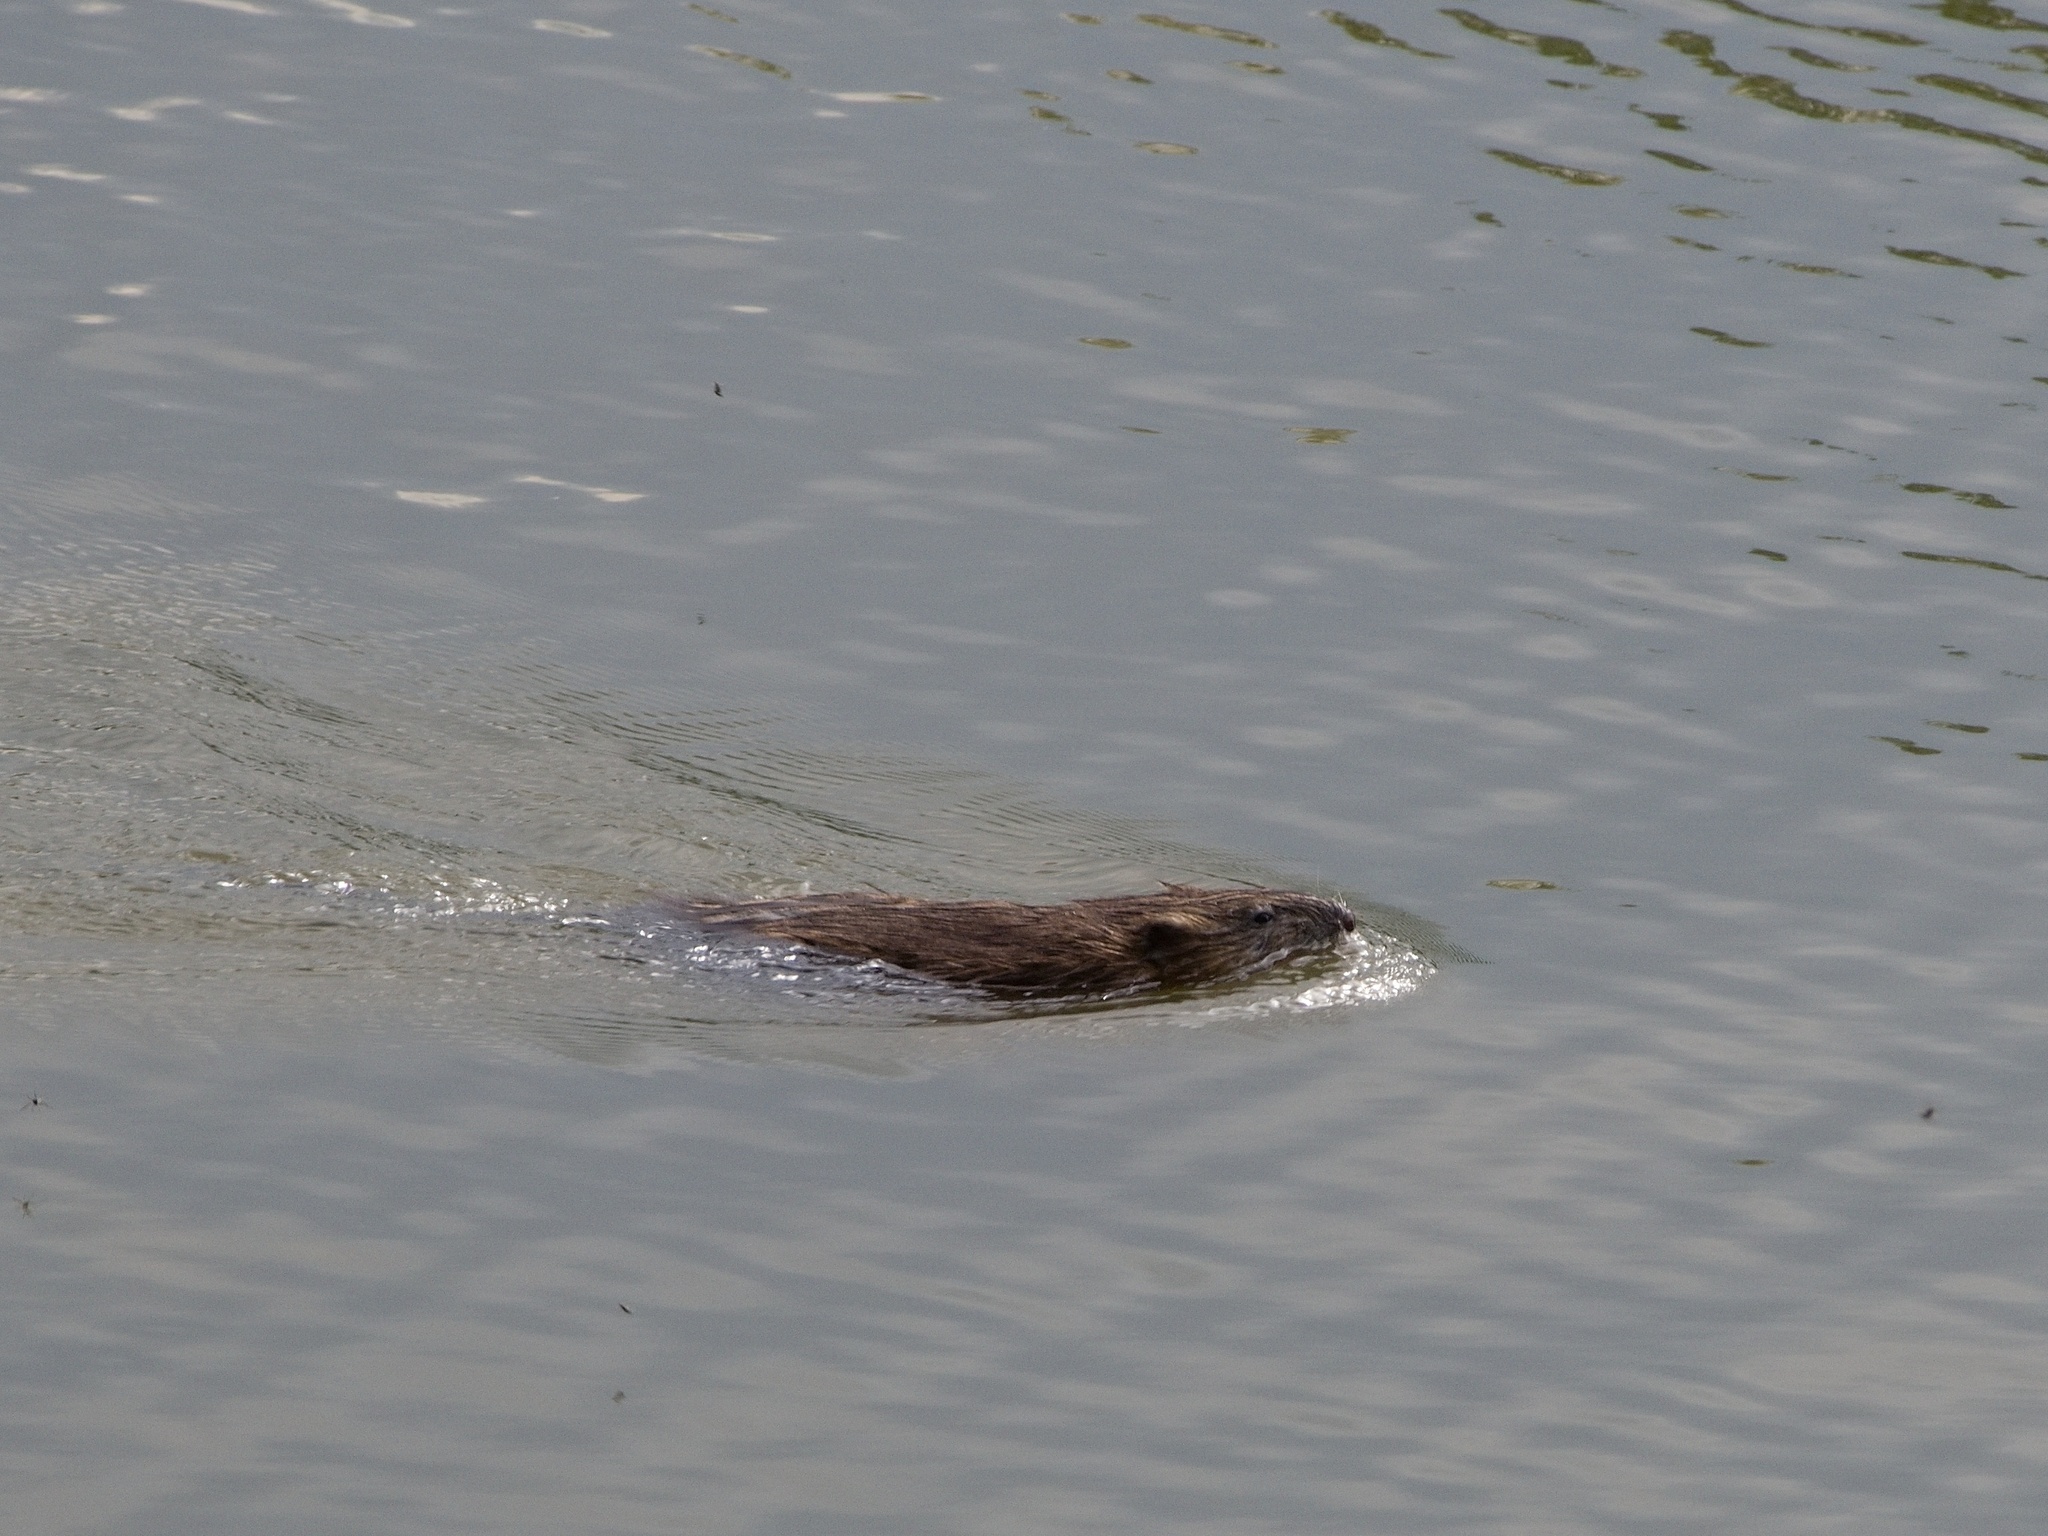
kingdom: Animalia
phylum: Chordata
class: Mammalia
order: Rodentia
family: Cricetidae
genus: Ondatra
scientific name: Ondatra zibethicus
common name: Muskrat
